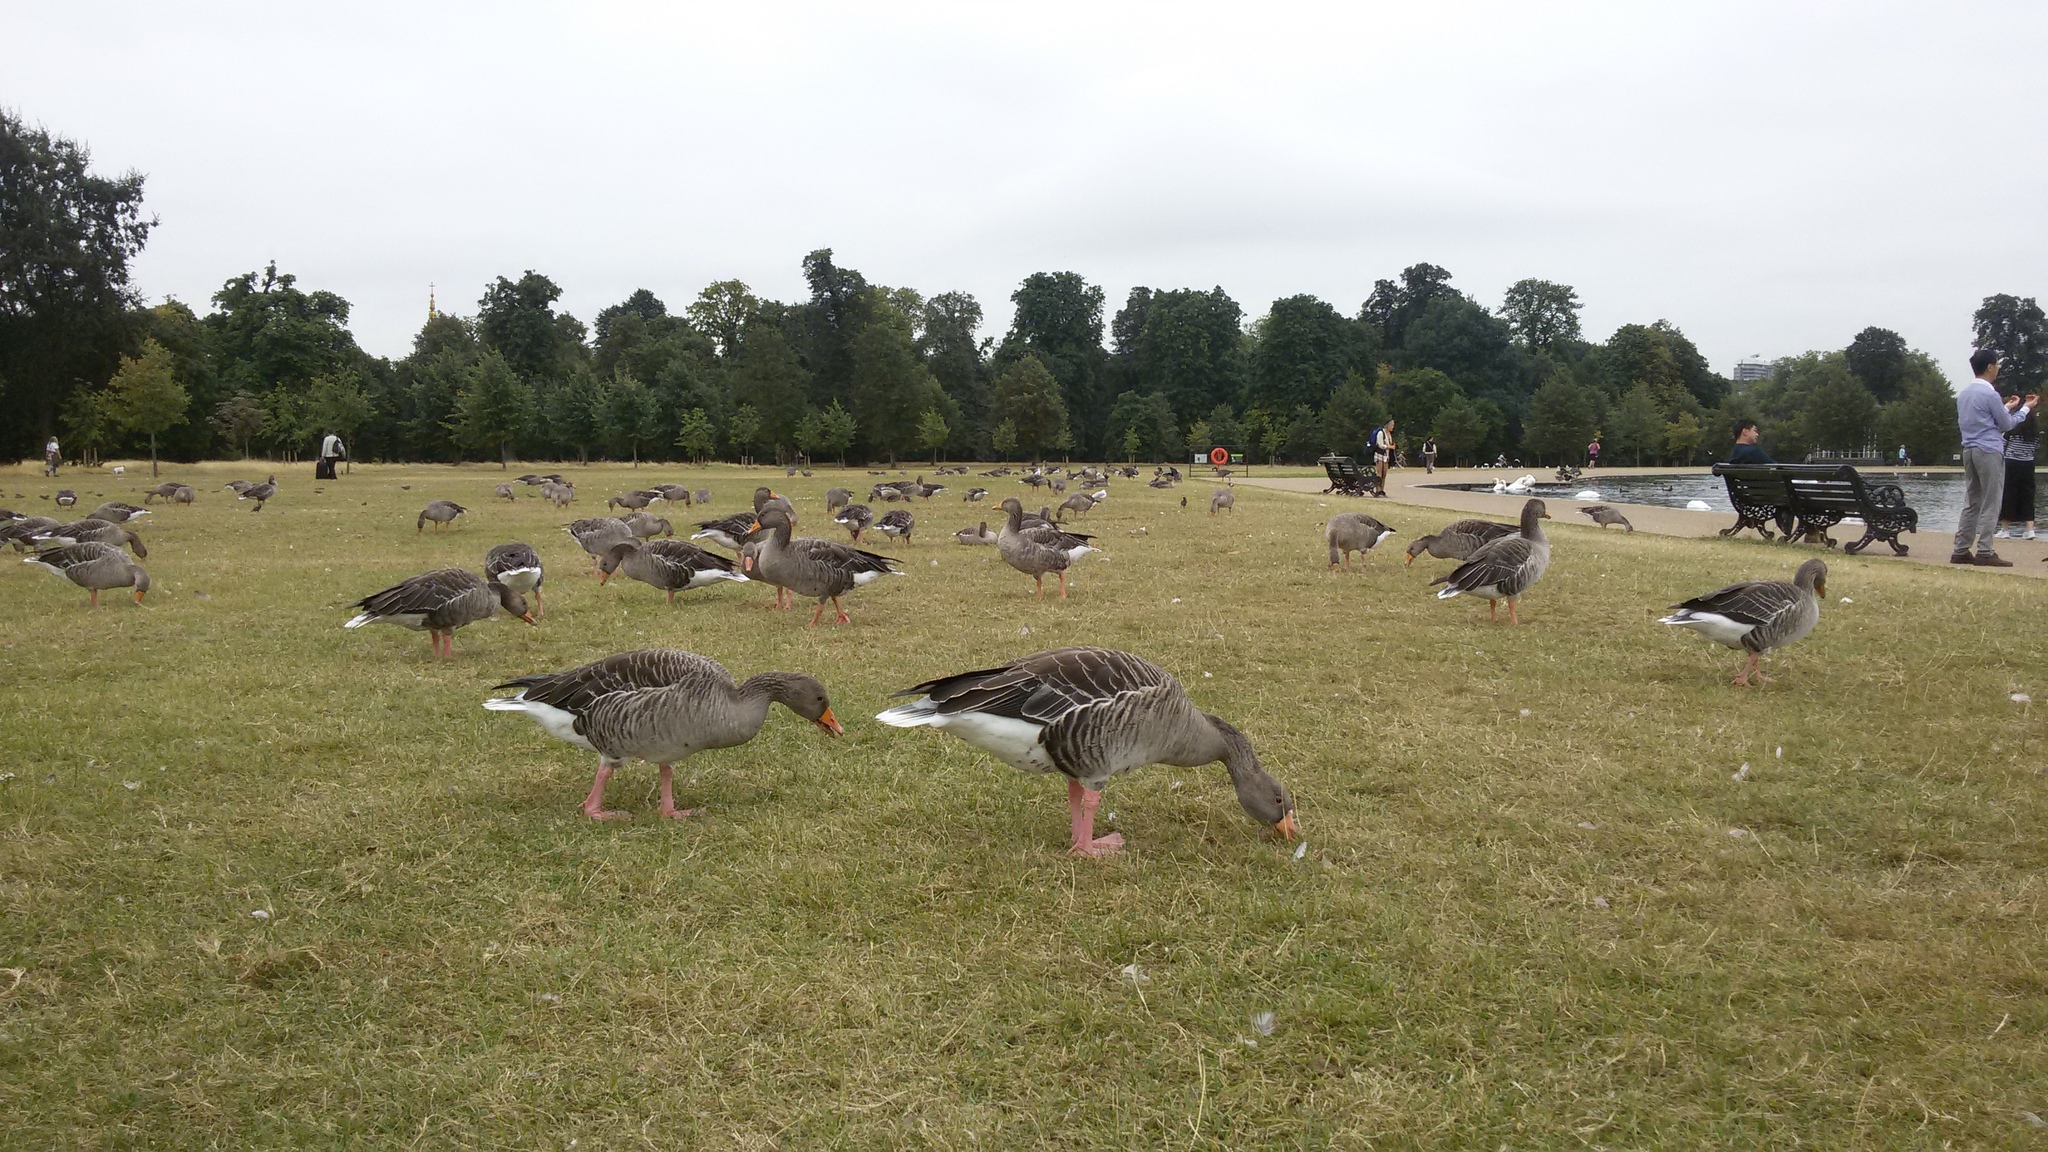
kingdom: Animalia
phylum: Chordata
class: Aves
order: Anseriformes
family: Anatidae
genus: Anser
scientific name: Anser anser
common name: Greylag goose
